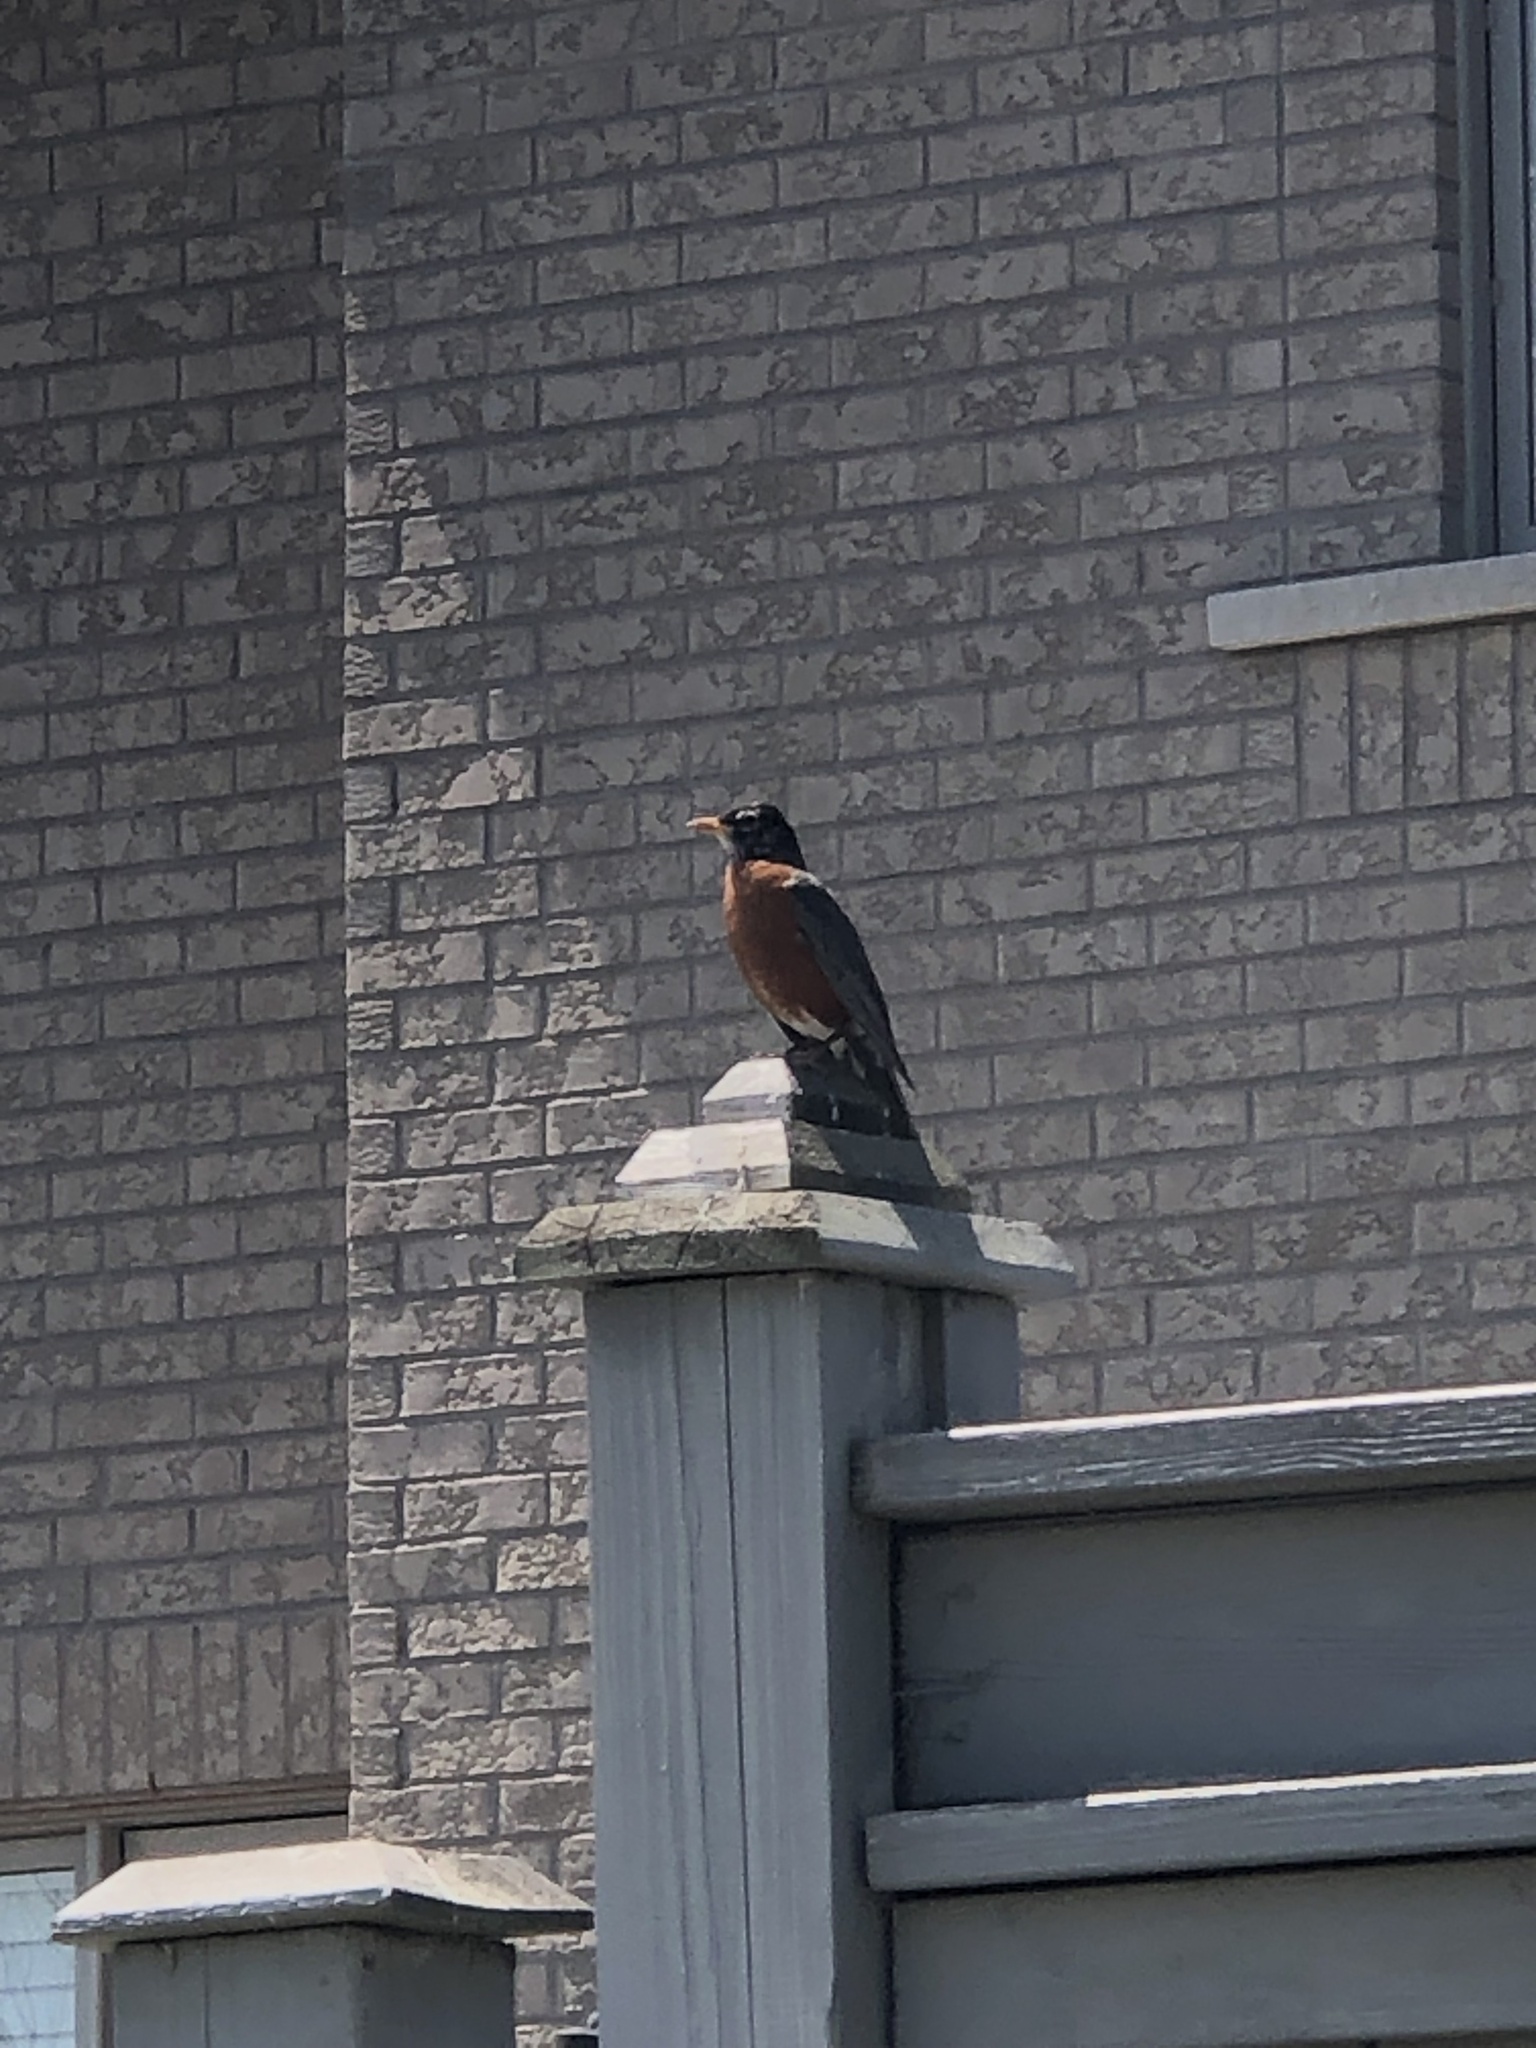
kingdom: Animalia
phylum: Chordata
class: Aves
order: Passeriformes
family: Turdidae
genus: Turdus
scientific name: Turdus migratorius
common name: American robin
